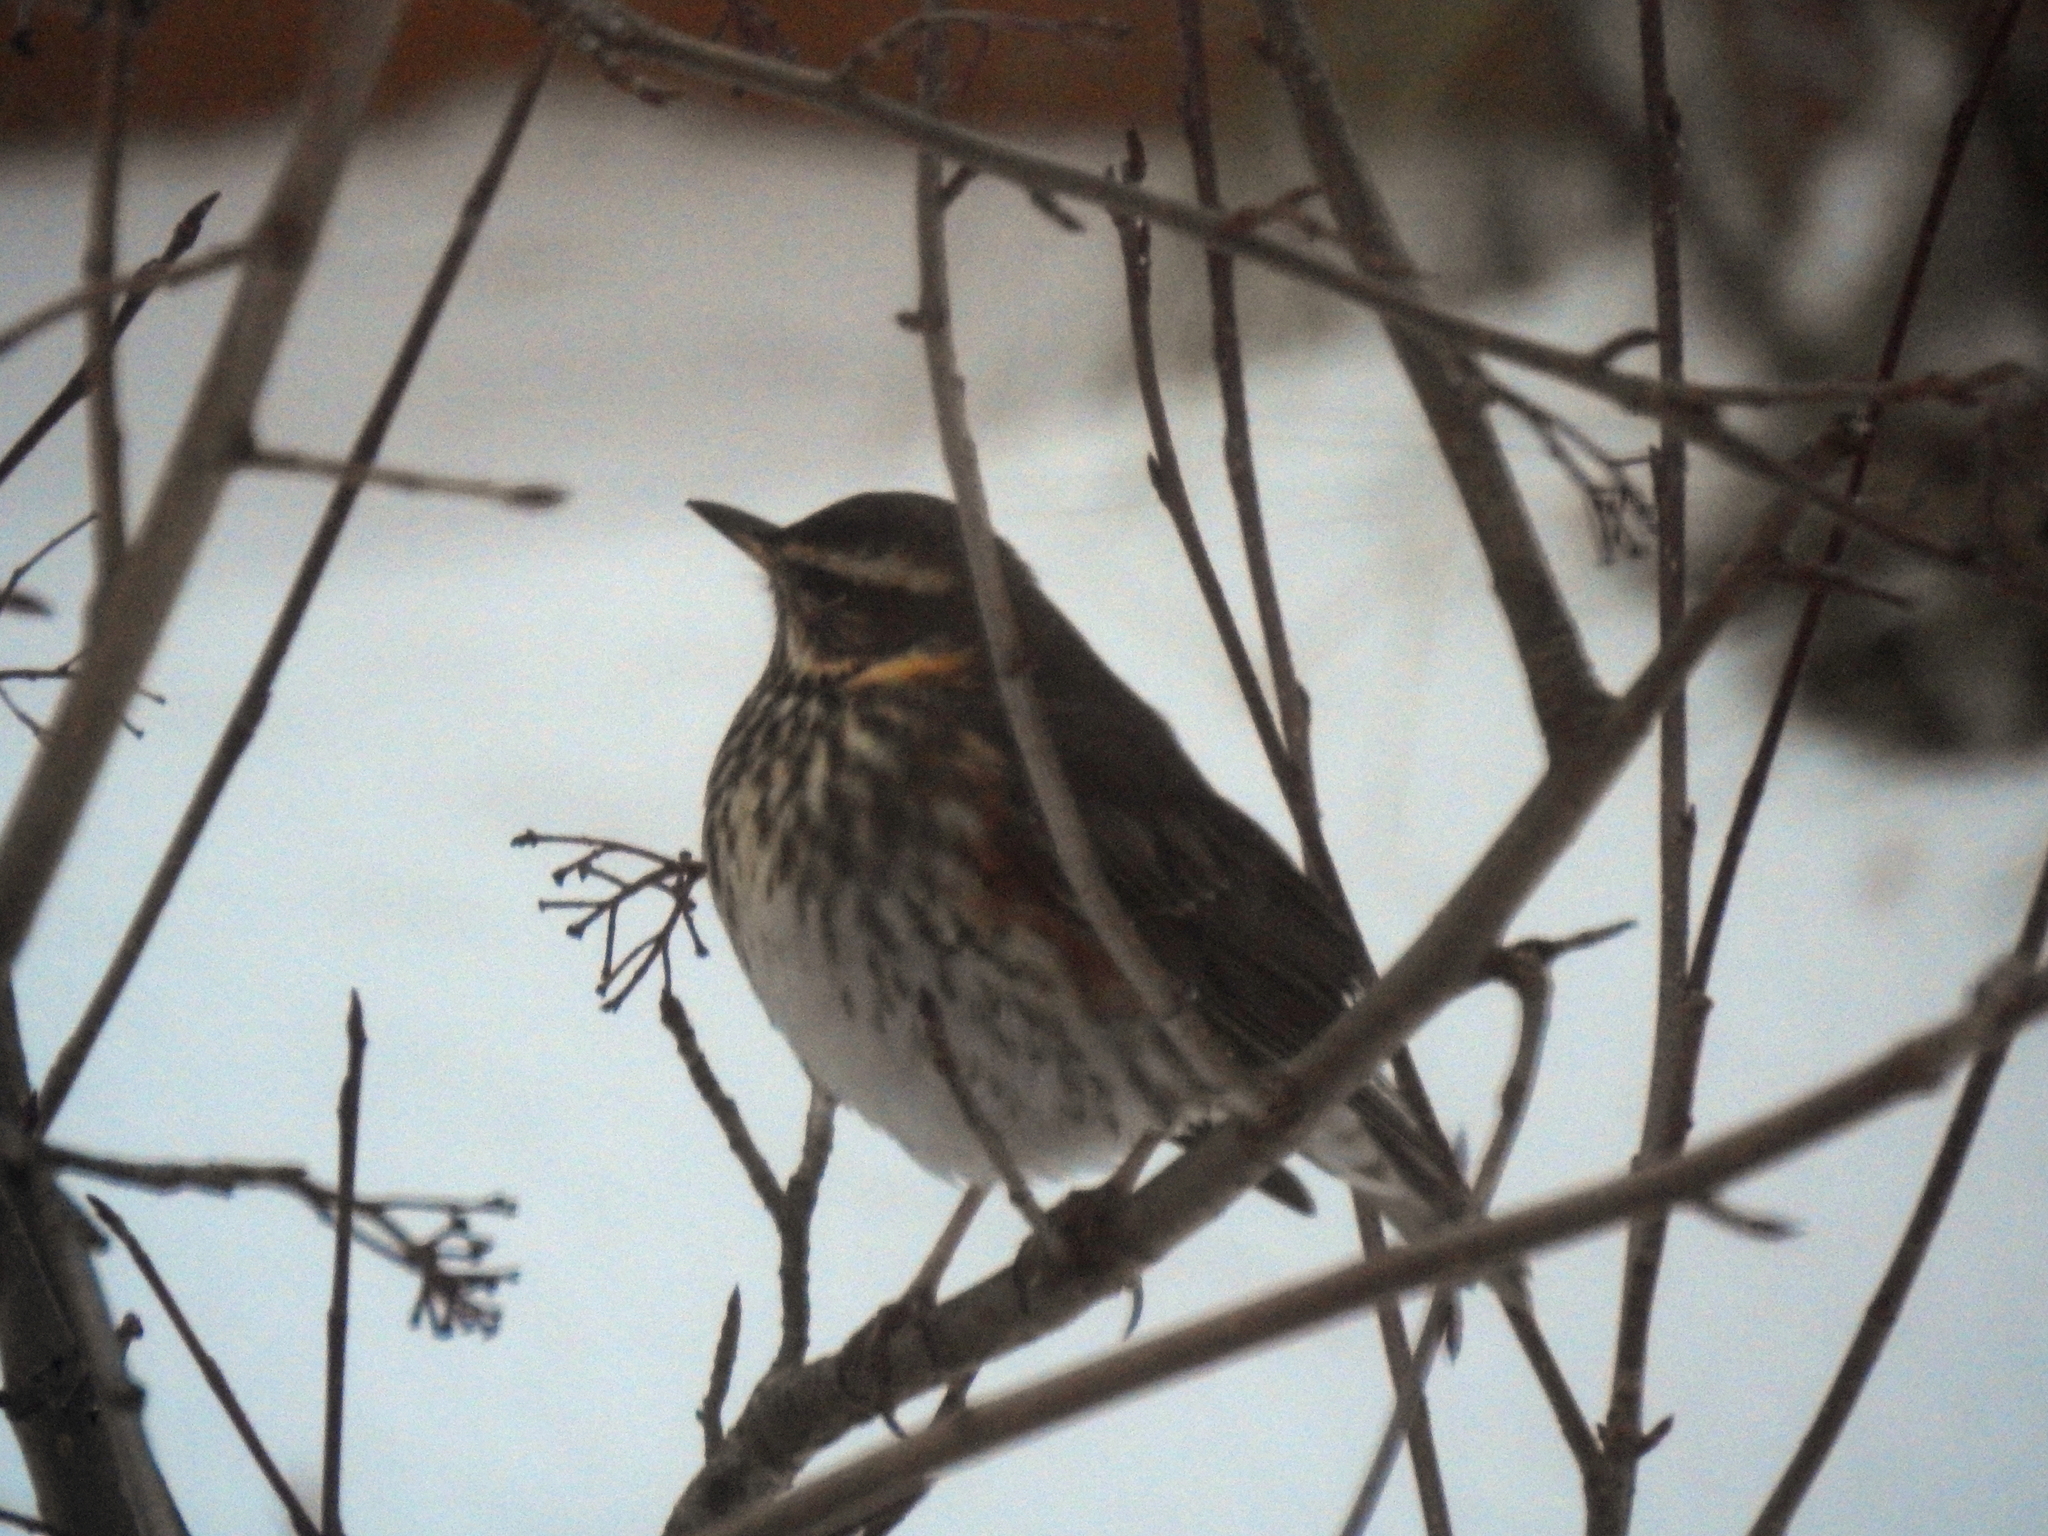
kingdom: Animalia
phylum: Chordata
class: Aves
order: Passeriformes
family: Turdidae
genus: Turdus
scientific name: Turdus iliacus
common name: Redwing
